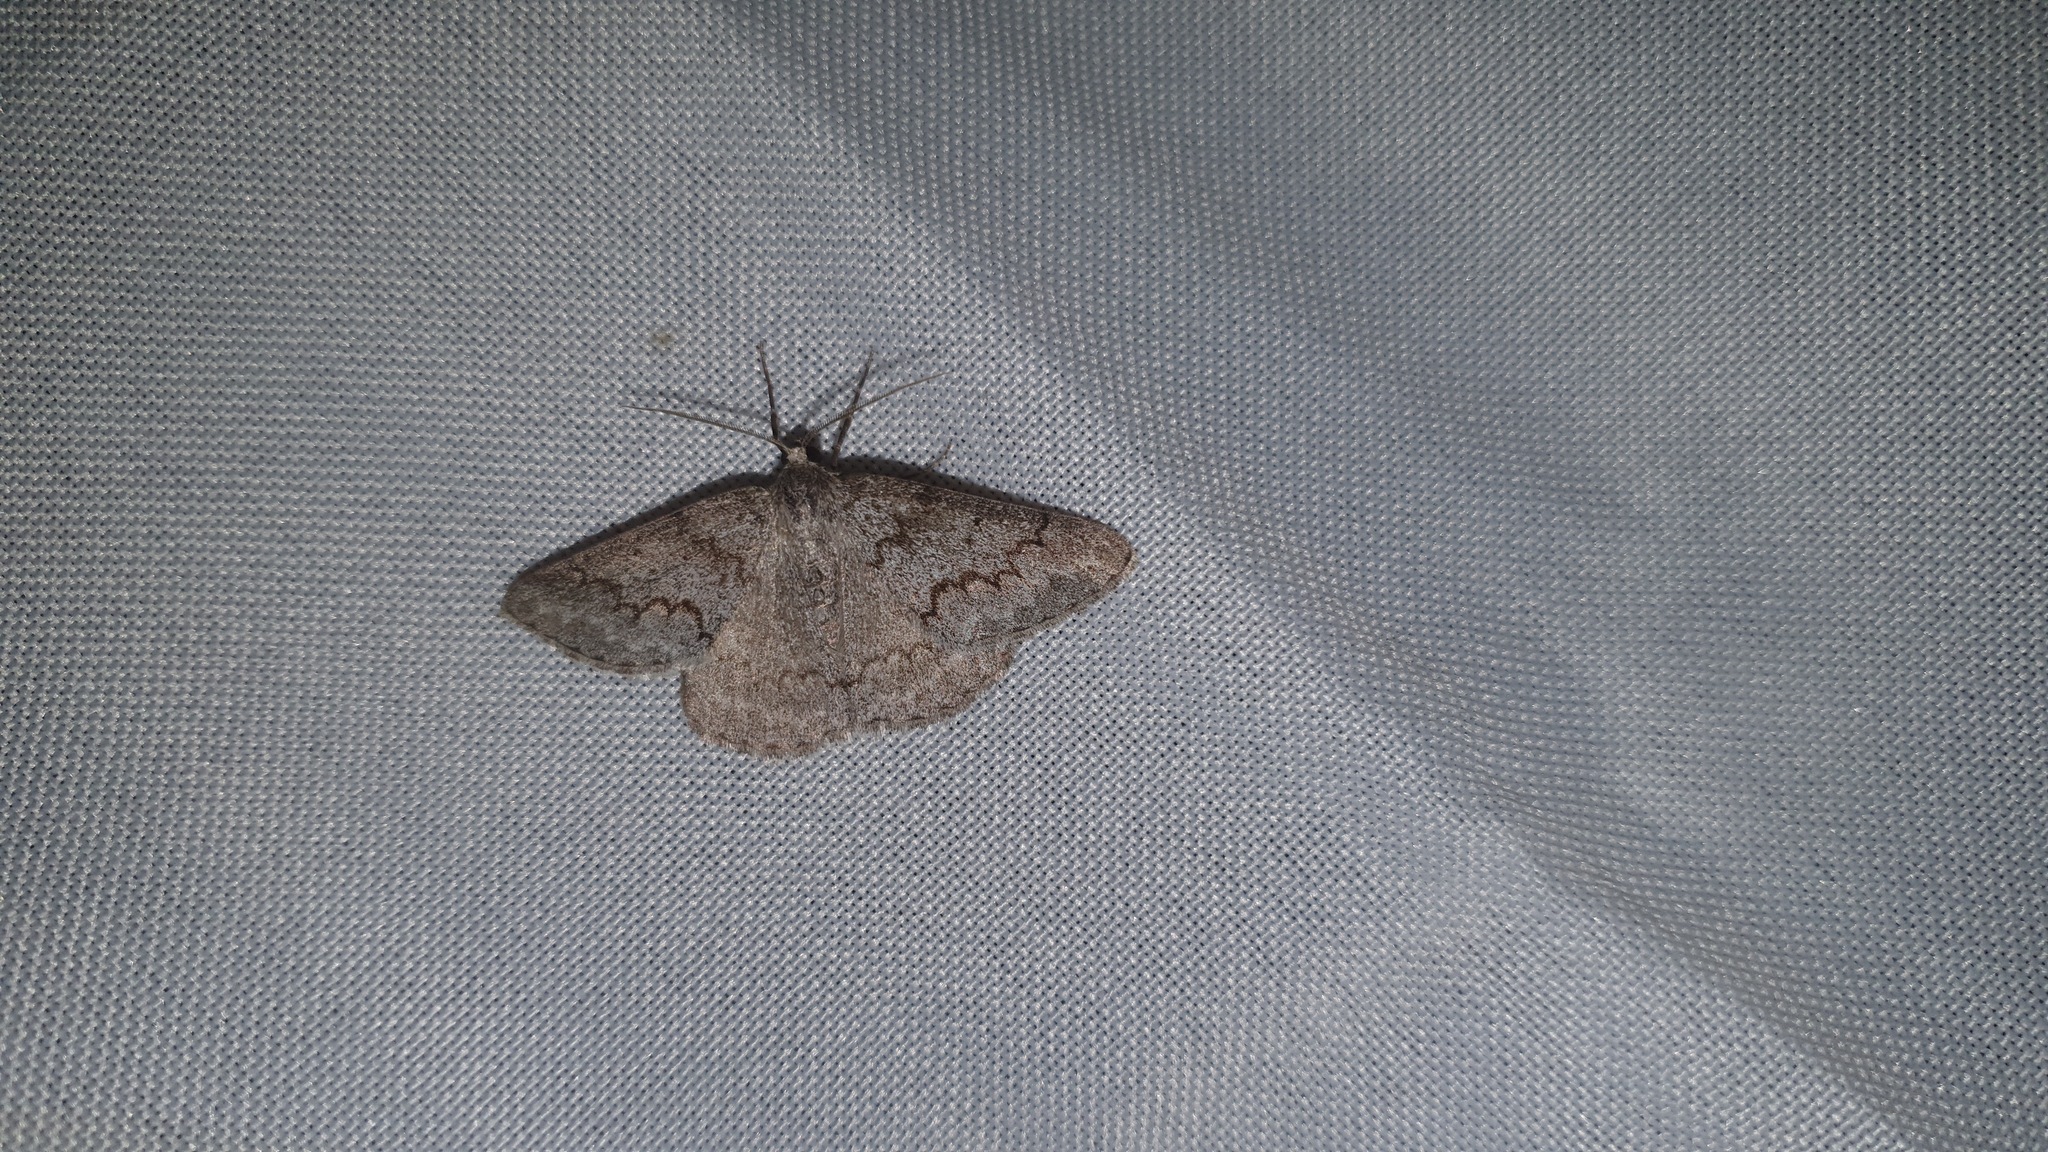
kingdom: Animalia
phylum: Arthropoda
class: Insecta
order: Lepidoptera
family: Geometridae
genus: Pseudoterpna
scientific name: Pseudoterpna coronillaria
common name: Jersey emerald
